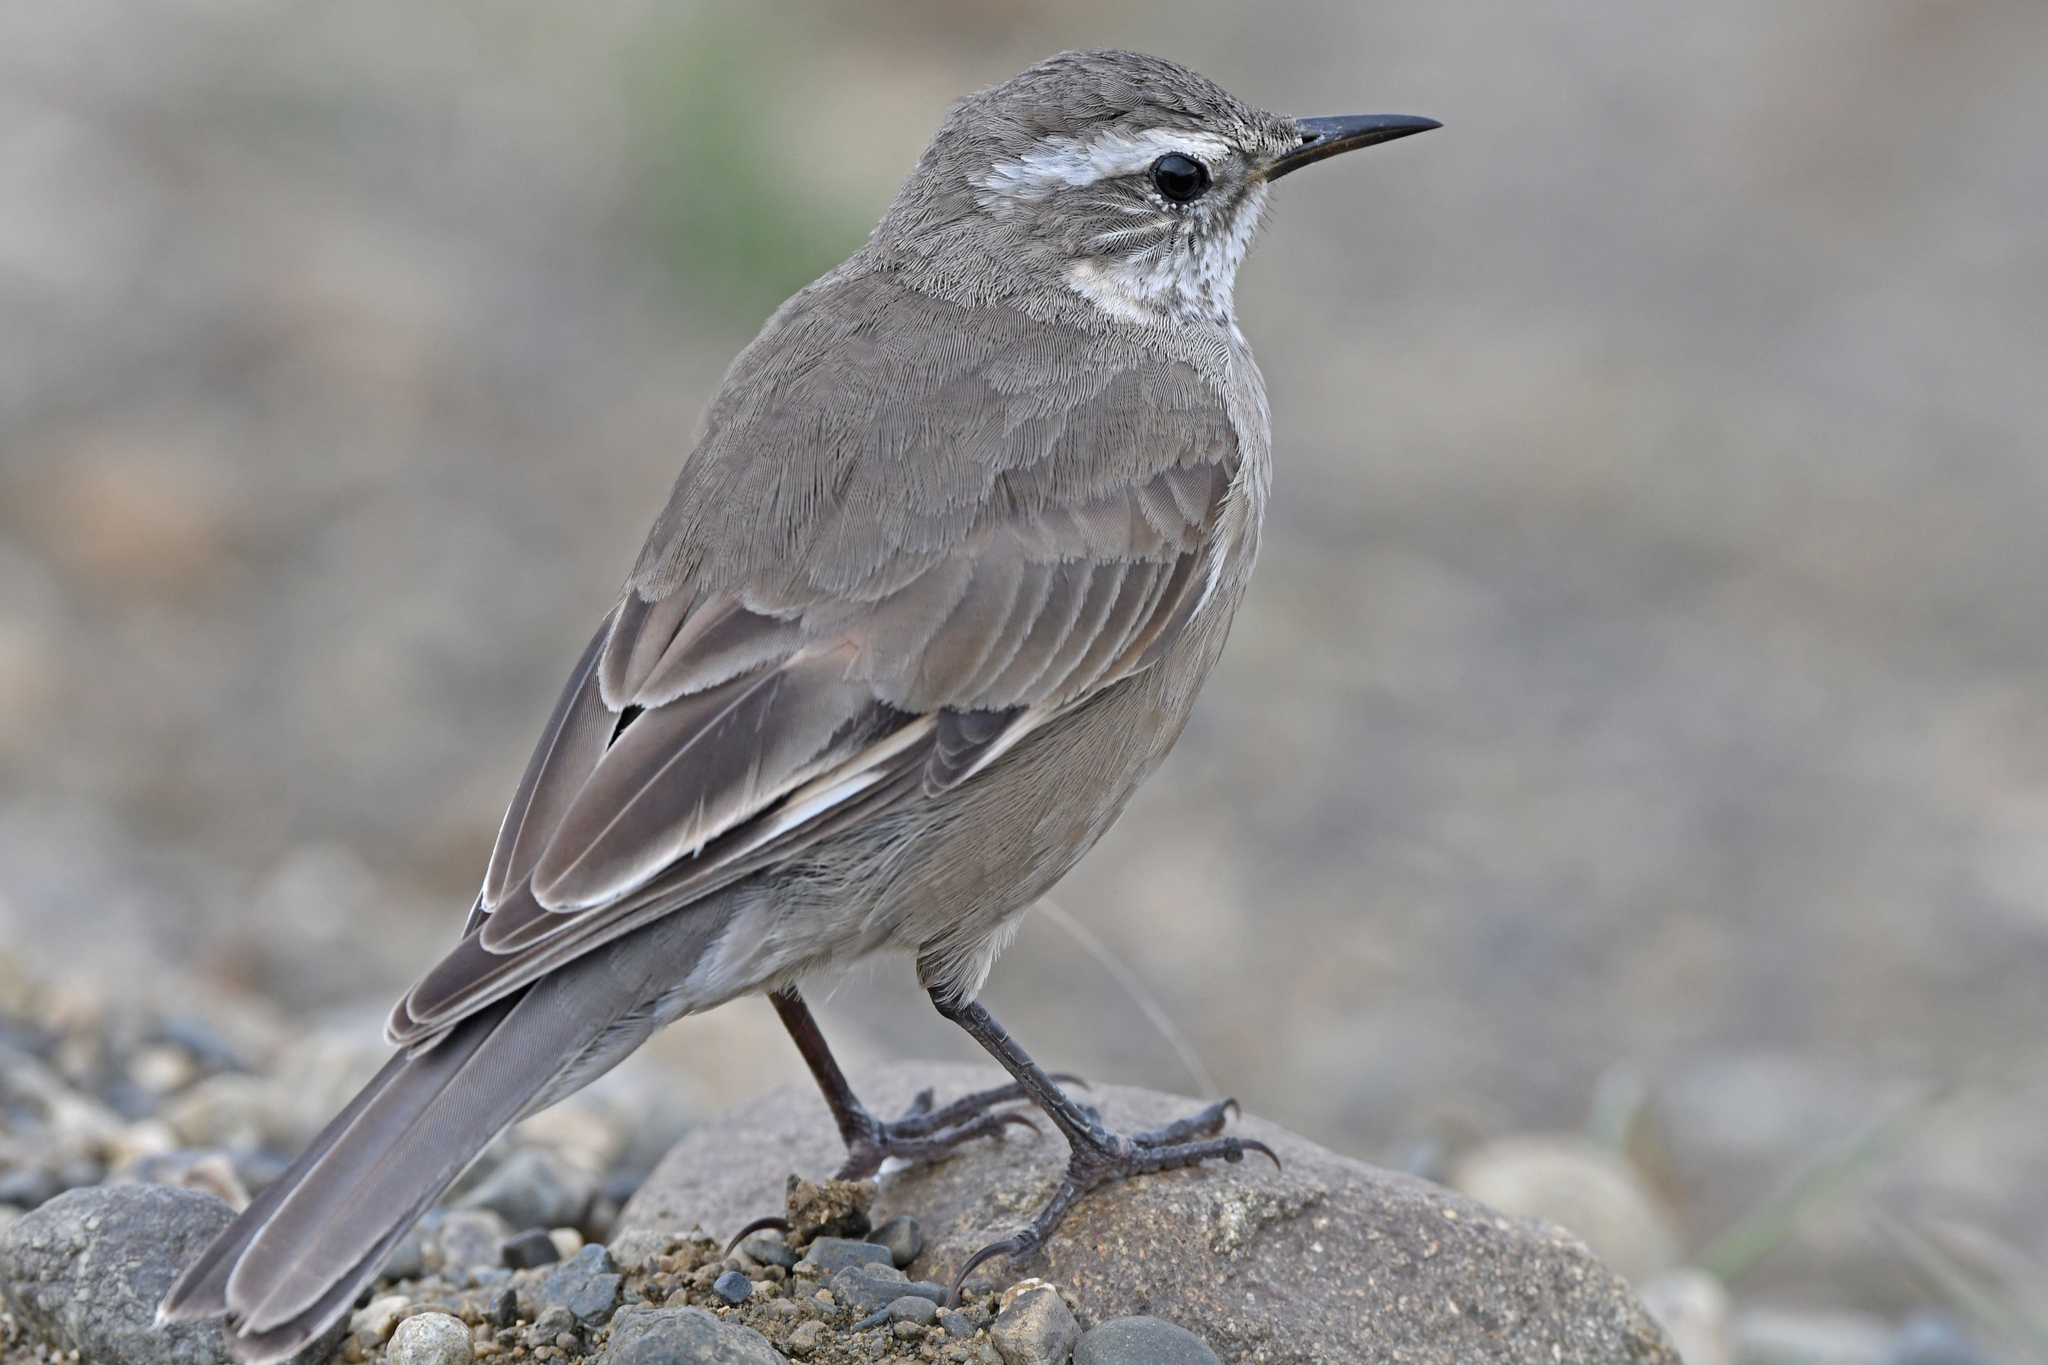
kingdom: Animalia
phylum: Chordata
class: Aves
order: Passeriformes
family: Furnariidae
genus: Cinclodes
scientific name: Cinclodes fuscus
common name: Buff-winged cinclodes
